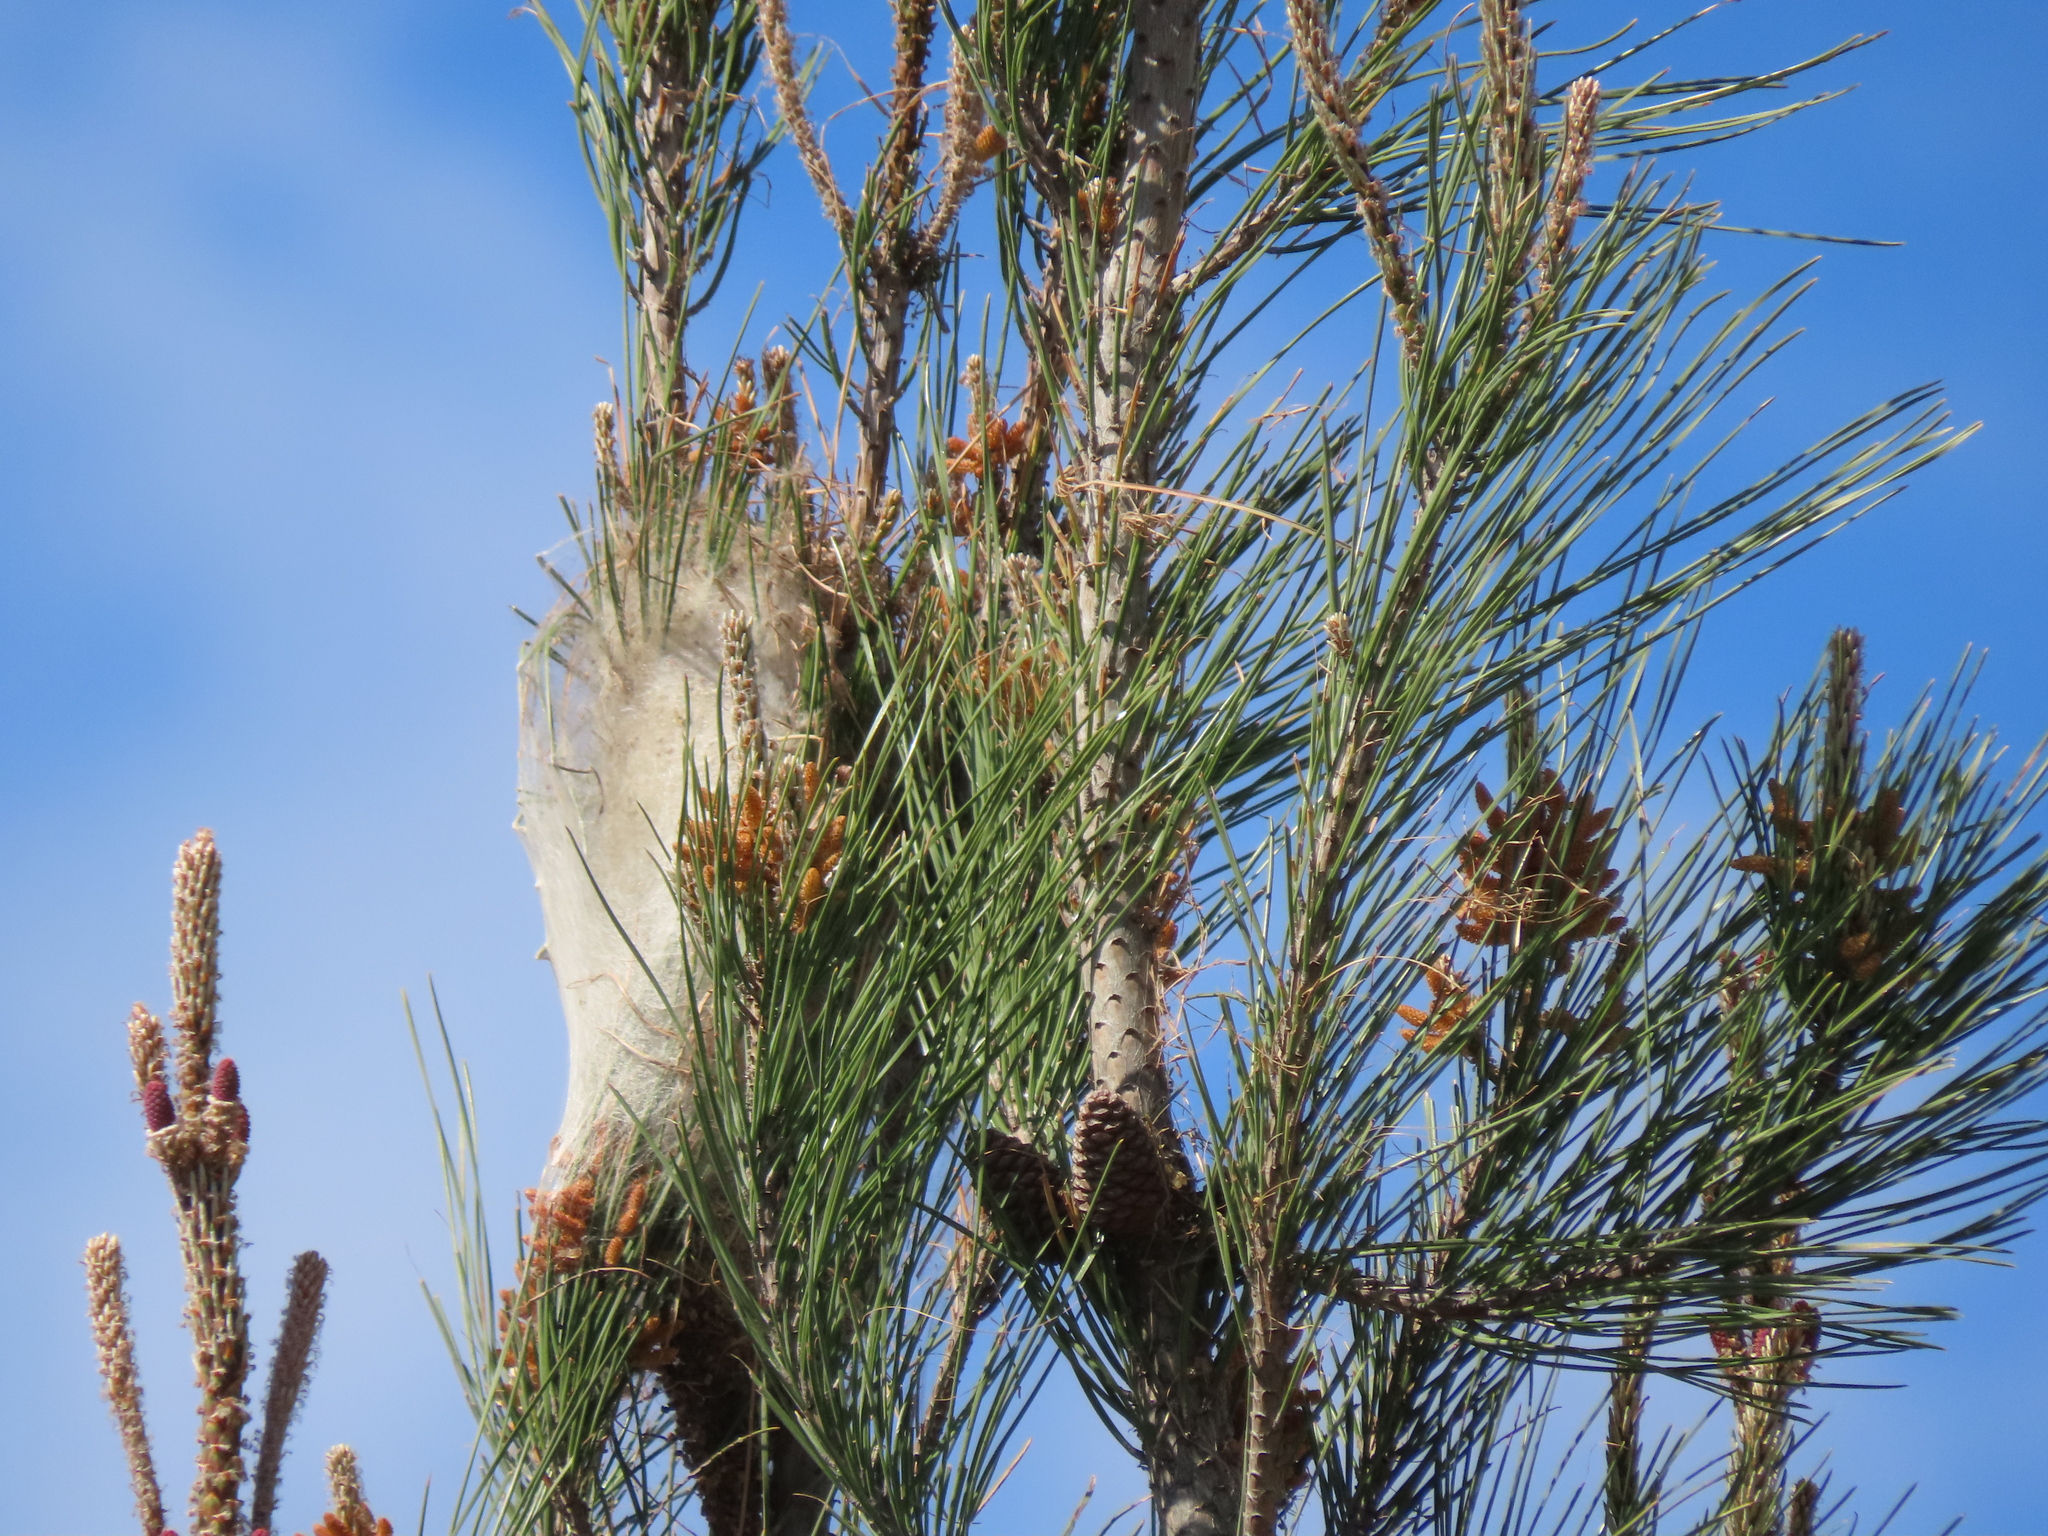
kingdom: Animalia
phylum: Arthropoda
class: Insecta
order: Lepidoptera
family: Notodontidae
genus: Thaumetopoea
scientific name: Thaumetopoea pityocampa
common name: Pine processionary
